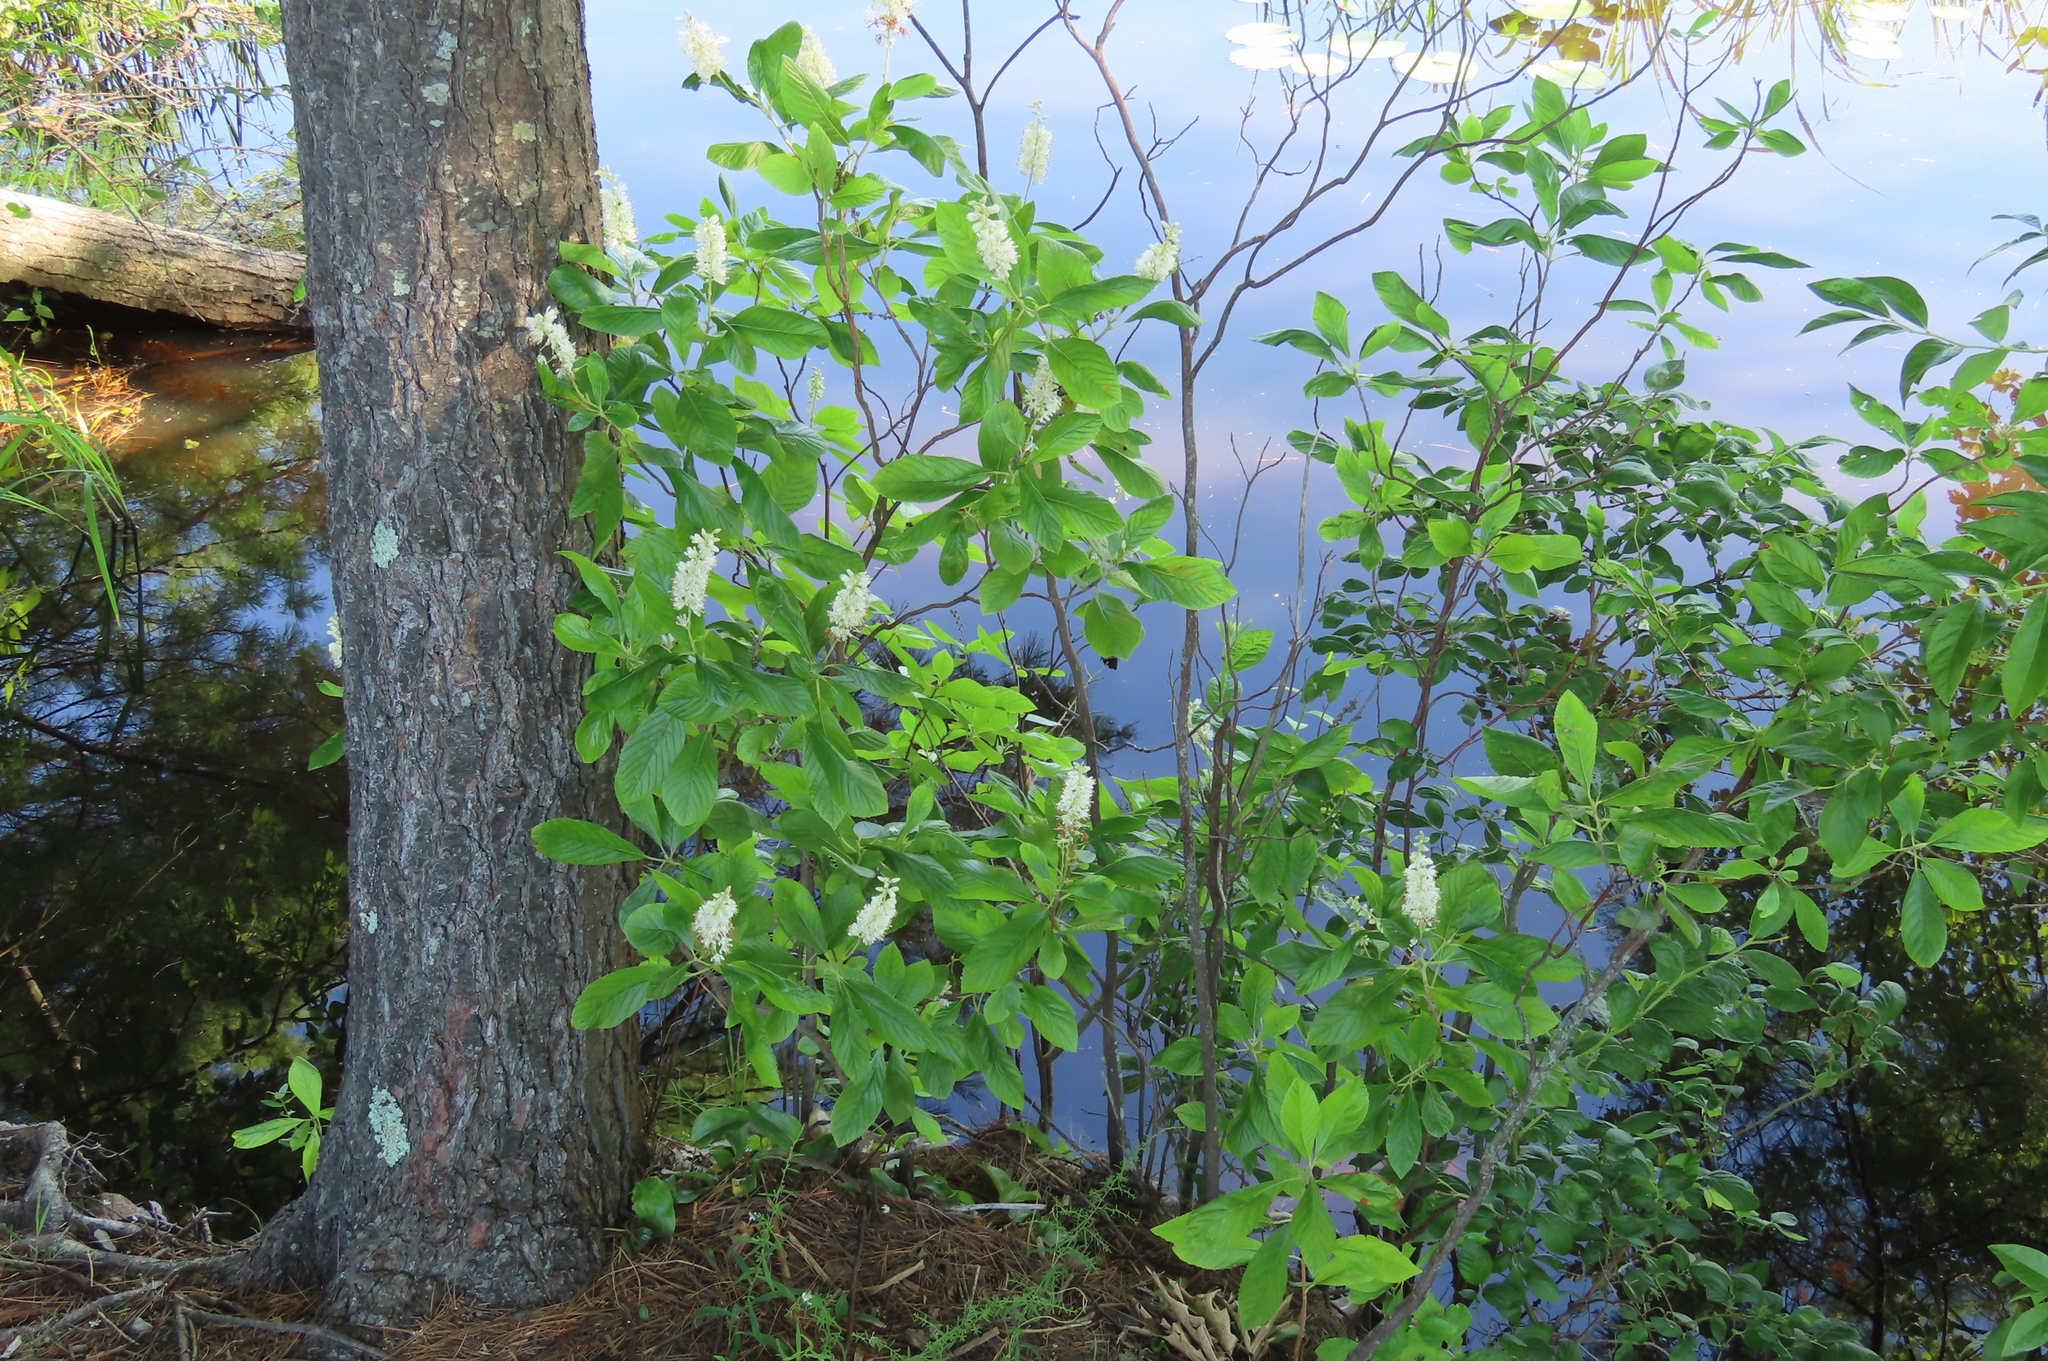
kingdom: Plantae
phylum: Tracheophyta
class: Magnoliopsida
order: Ericales
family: Clethraceae
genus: Clethra
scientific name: Clethra alnifolia
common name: Sweet pepperbush
